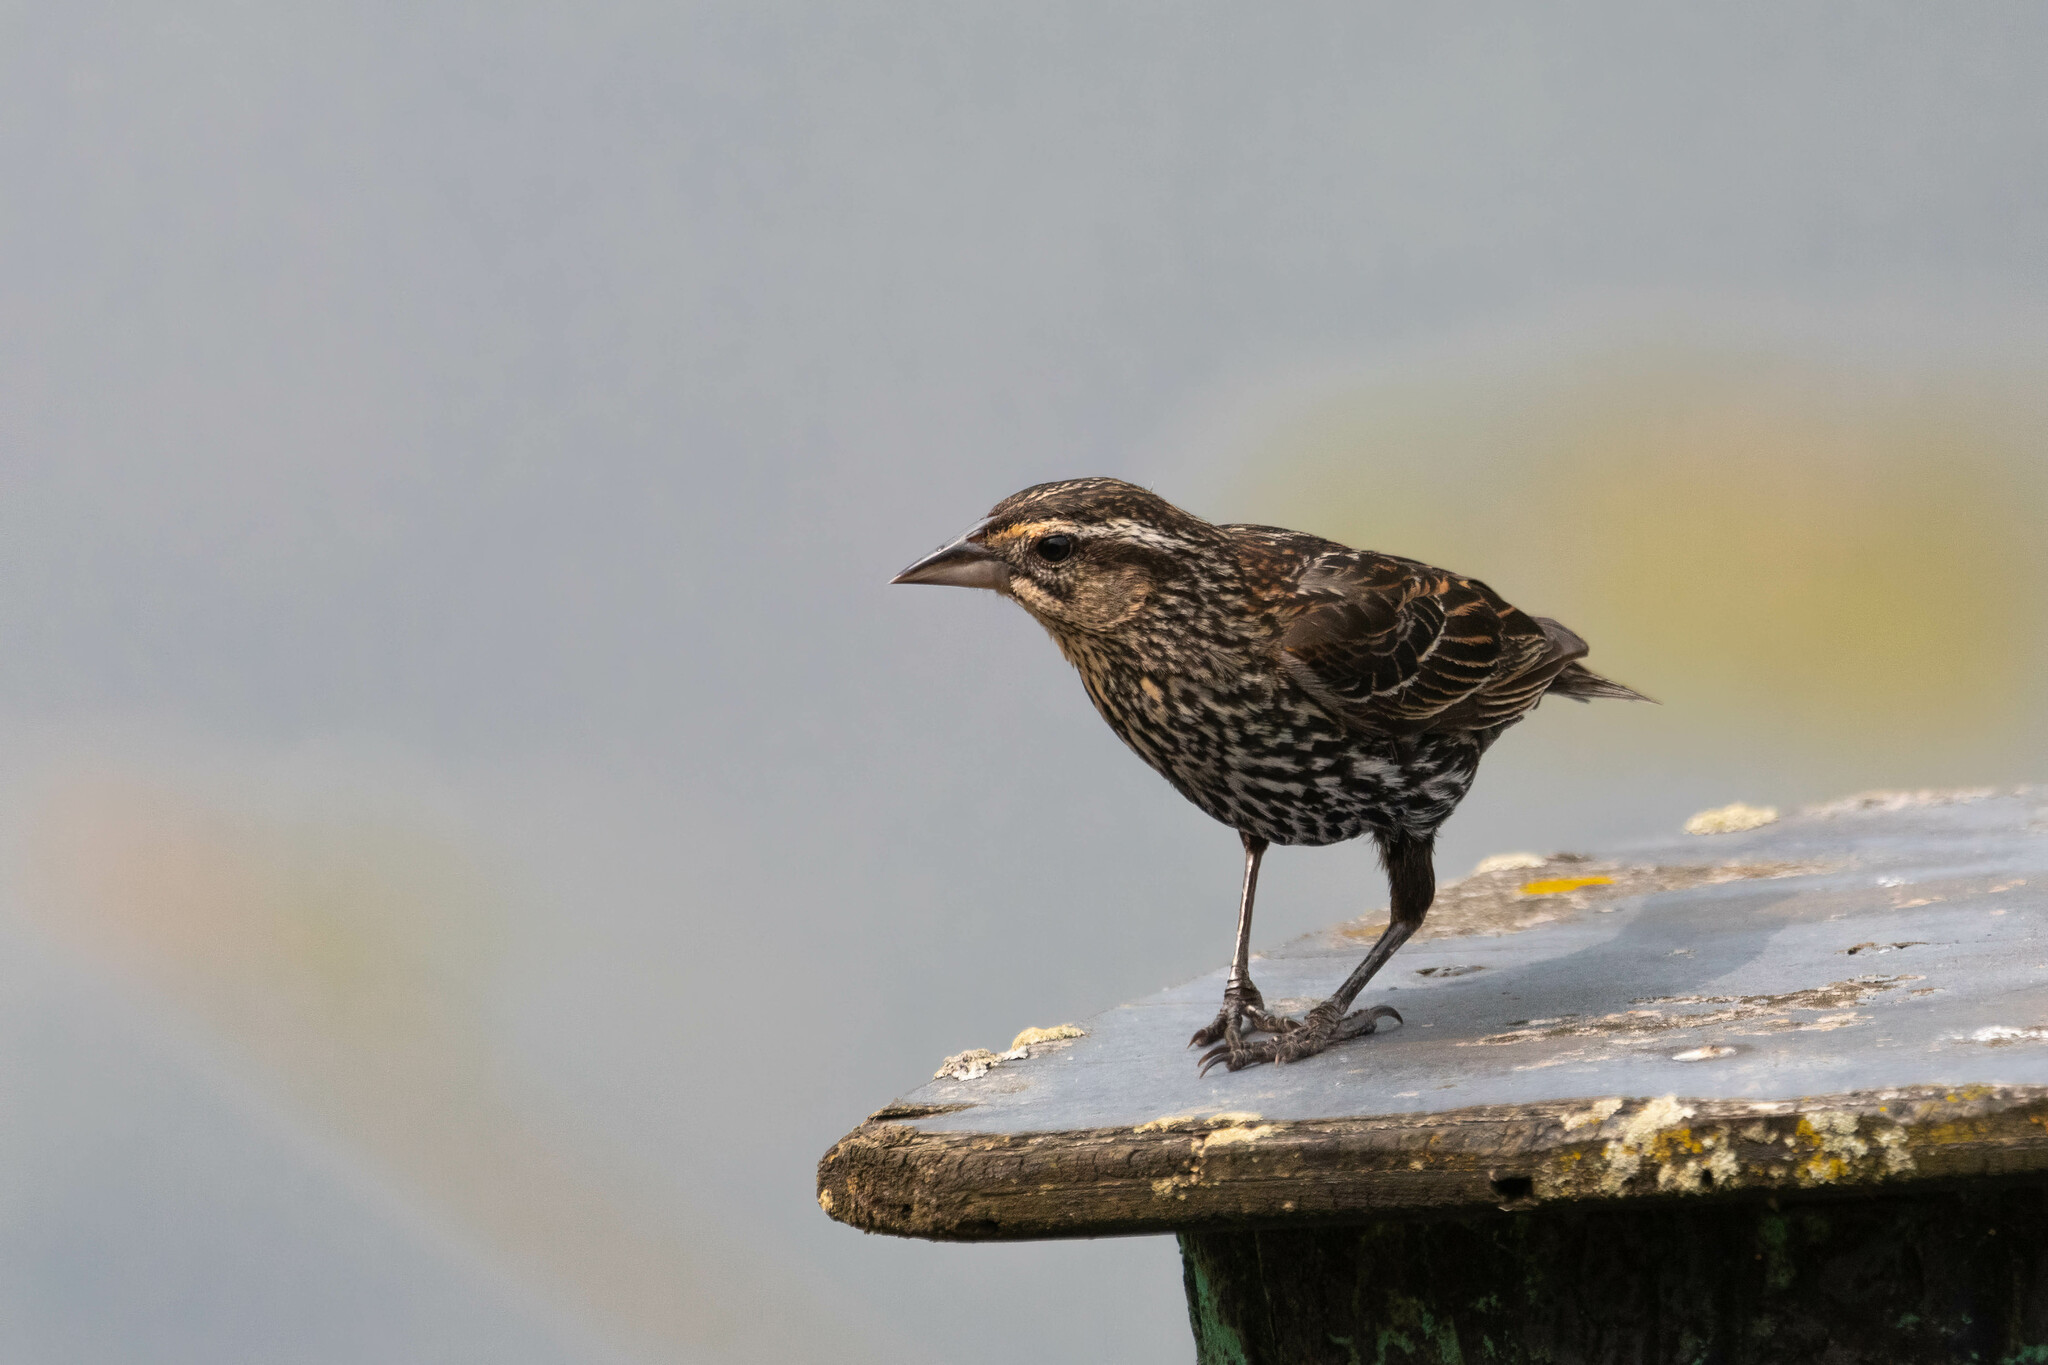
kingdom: Animalia
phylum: Chordata
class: Aves
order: Passeriformes
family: Icteridae
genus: Agelaius
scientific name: Agelaius phoeniceus
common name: Red-winged blackbird
